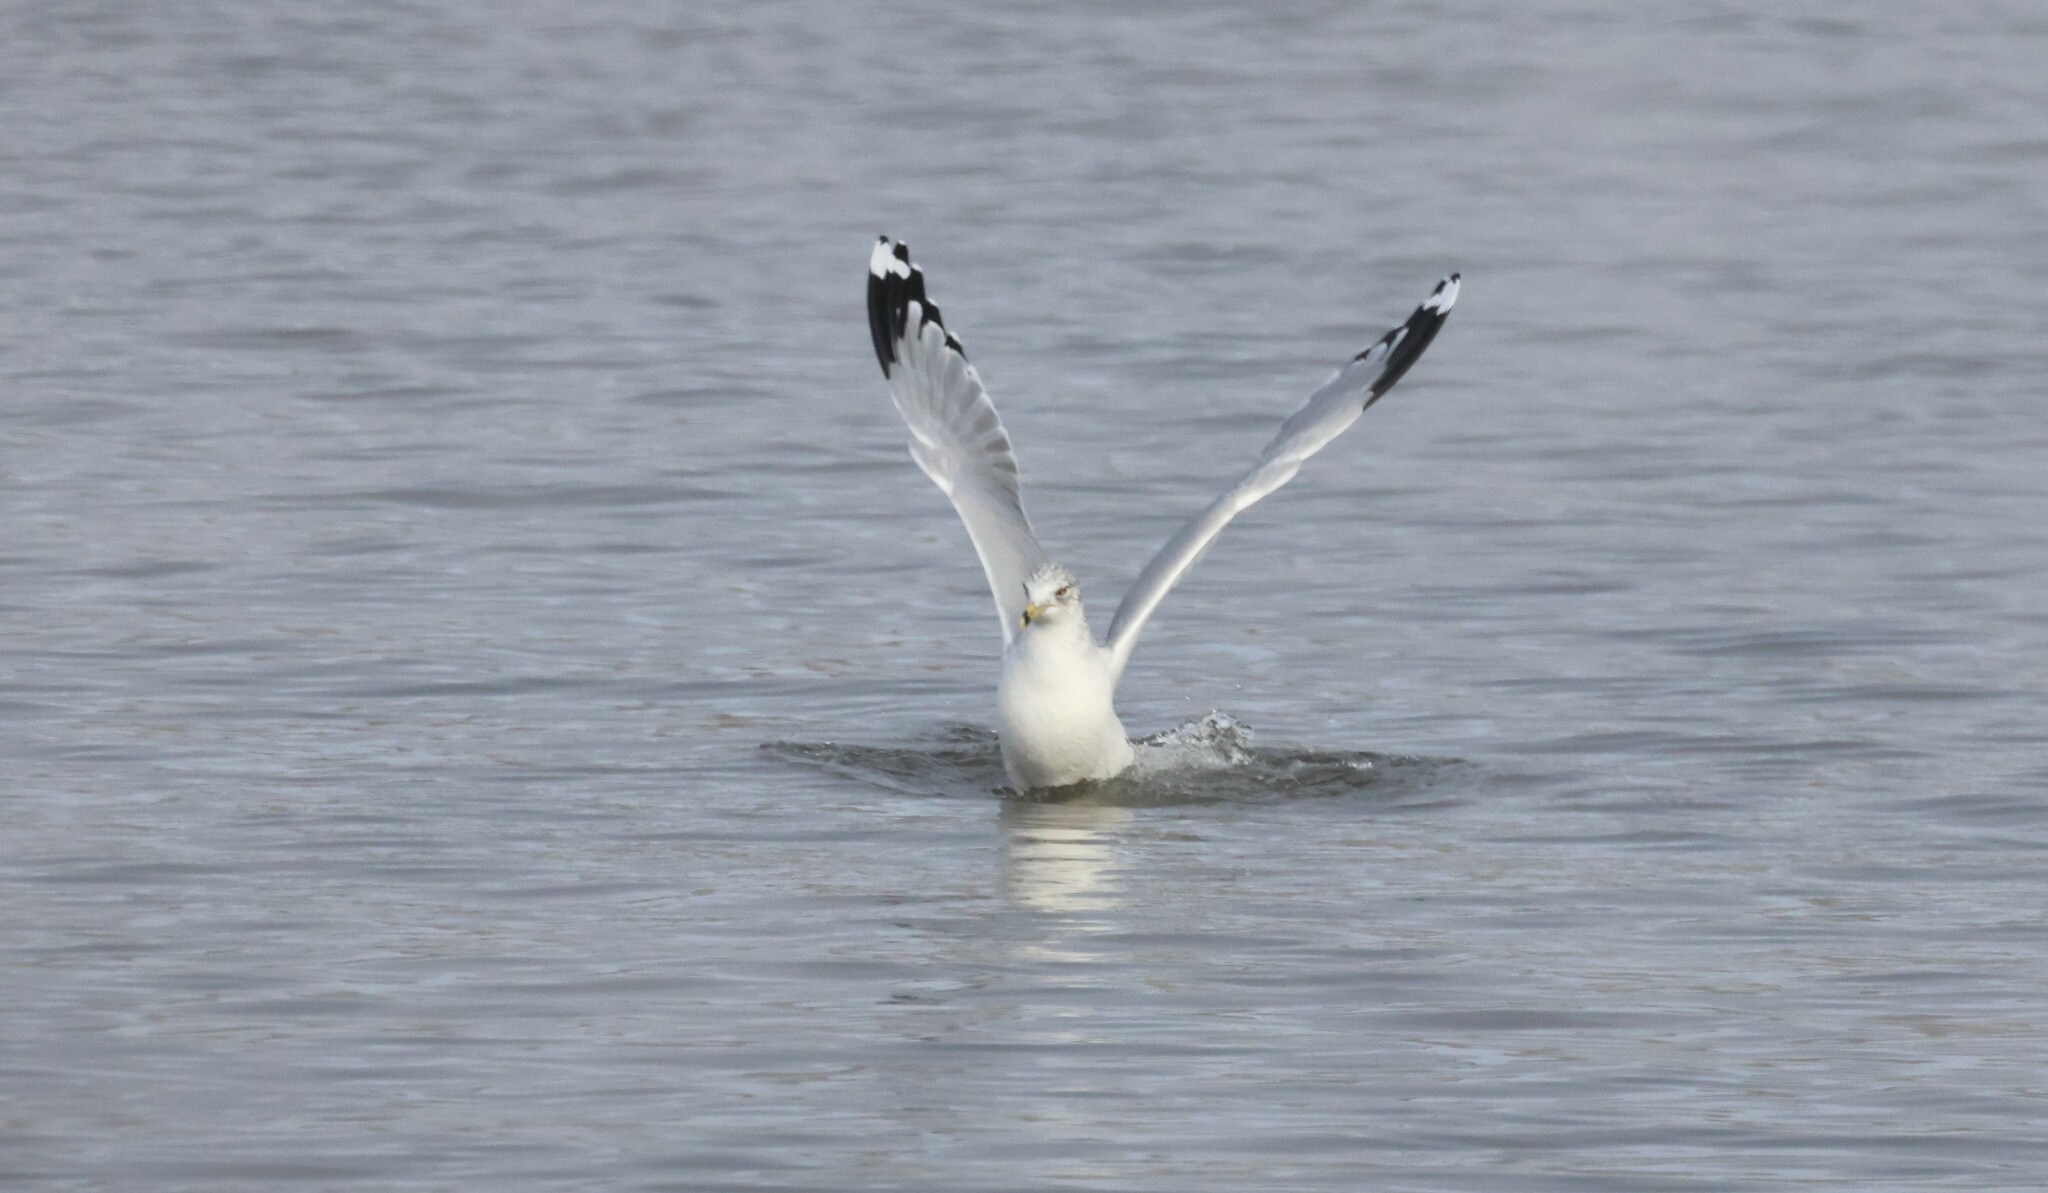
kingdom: Animalia
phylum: Chordata
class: Aves
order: Charadriiformes
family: Laridae
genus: Larus
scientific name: Larus delawarensis
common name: Ring-billed gull
